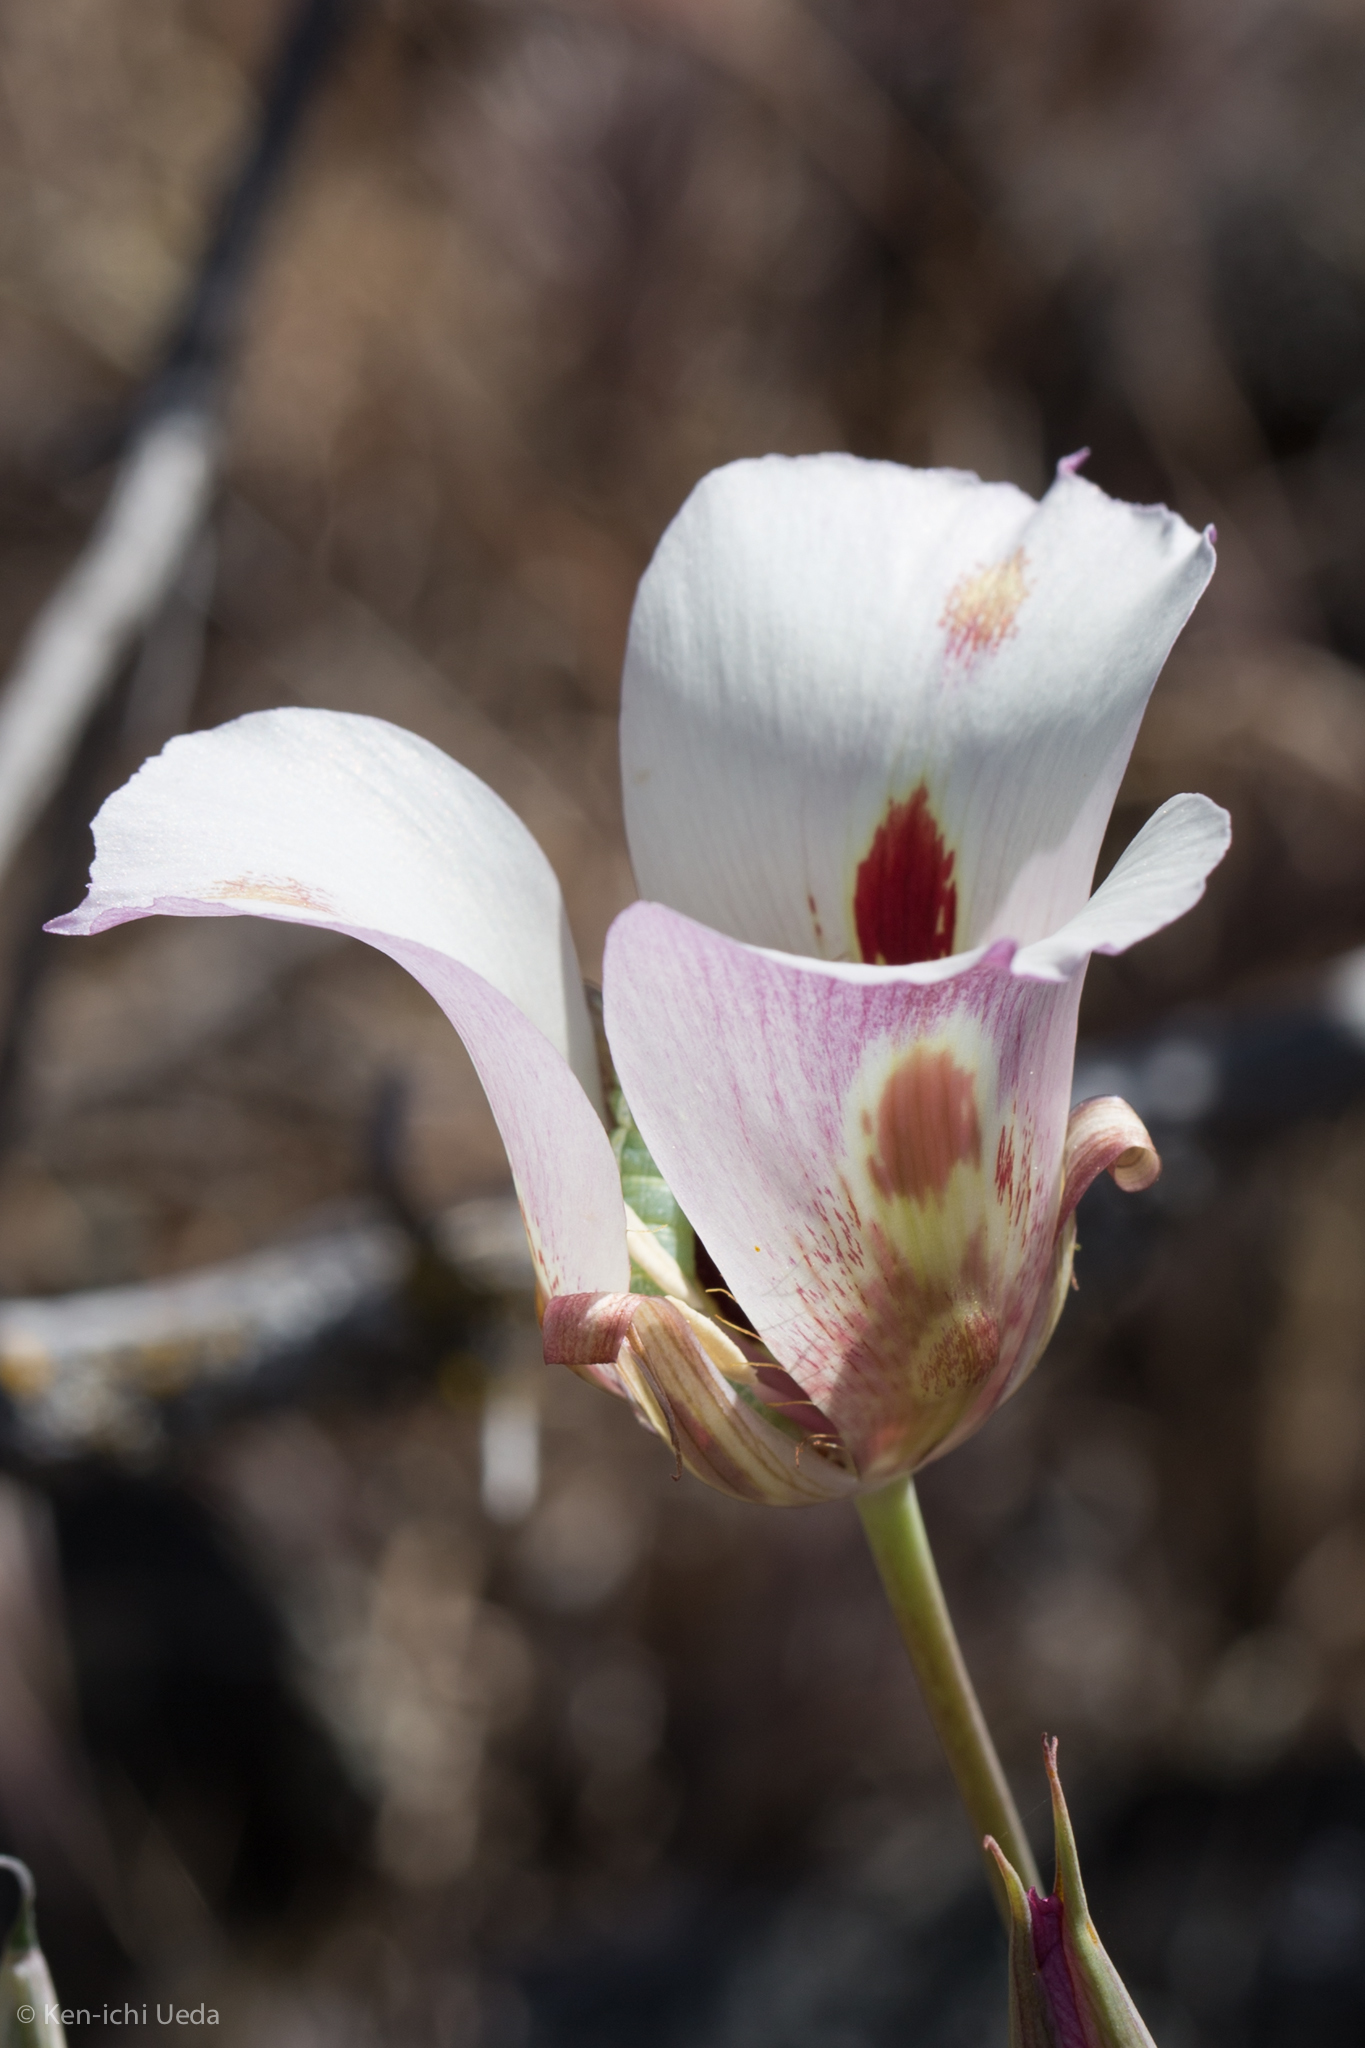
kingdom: Plantae
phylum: Tracheophyta
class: Liliopsida
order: Liliales
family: Liliaceae
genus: Calochortus
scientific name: Calochortus venustus
